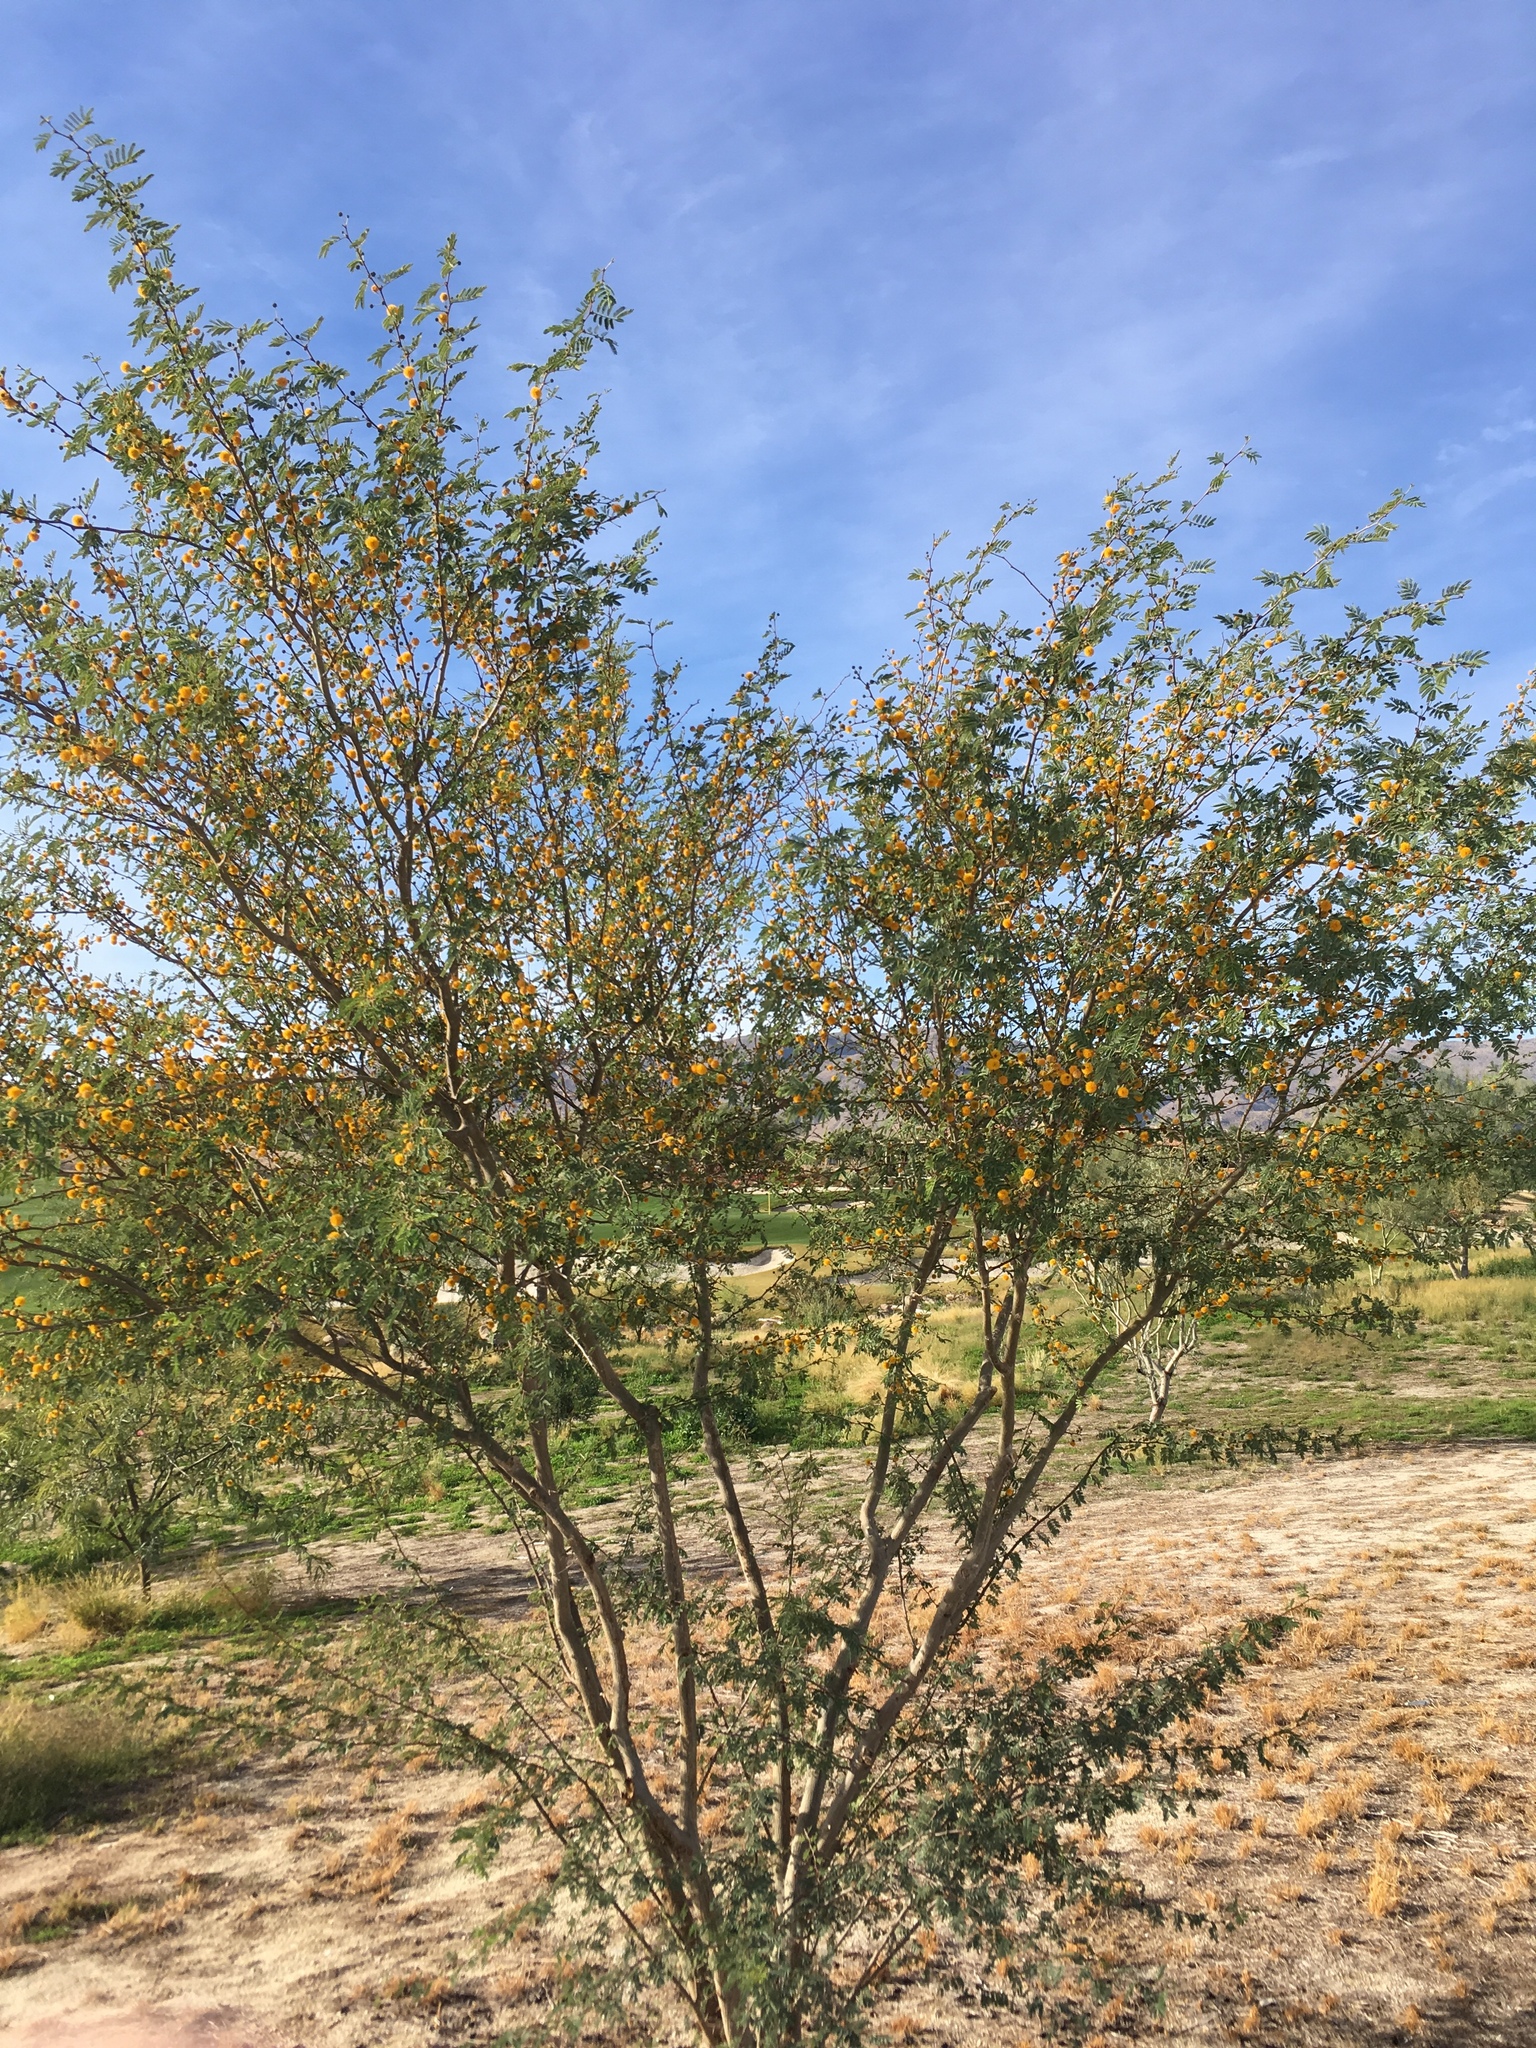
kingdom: Plantae
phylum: Tracheophyta
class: Magnoliopsida
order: Fabales
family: Fabaceae
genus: Vachellia
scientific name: Vachellia farnesiana
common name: Sweet acacia
